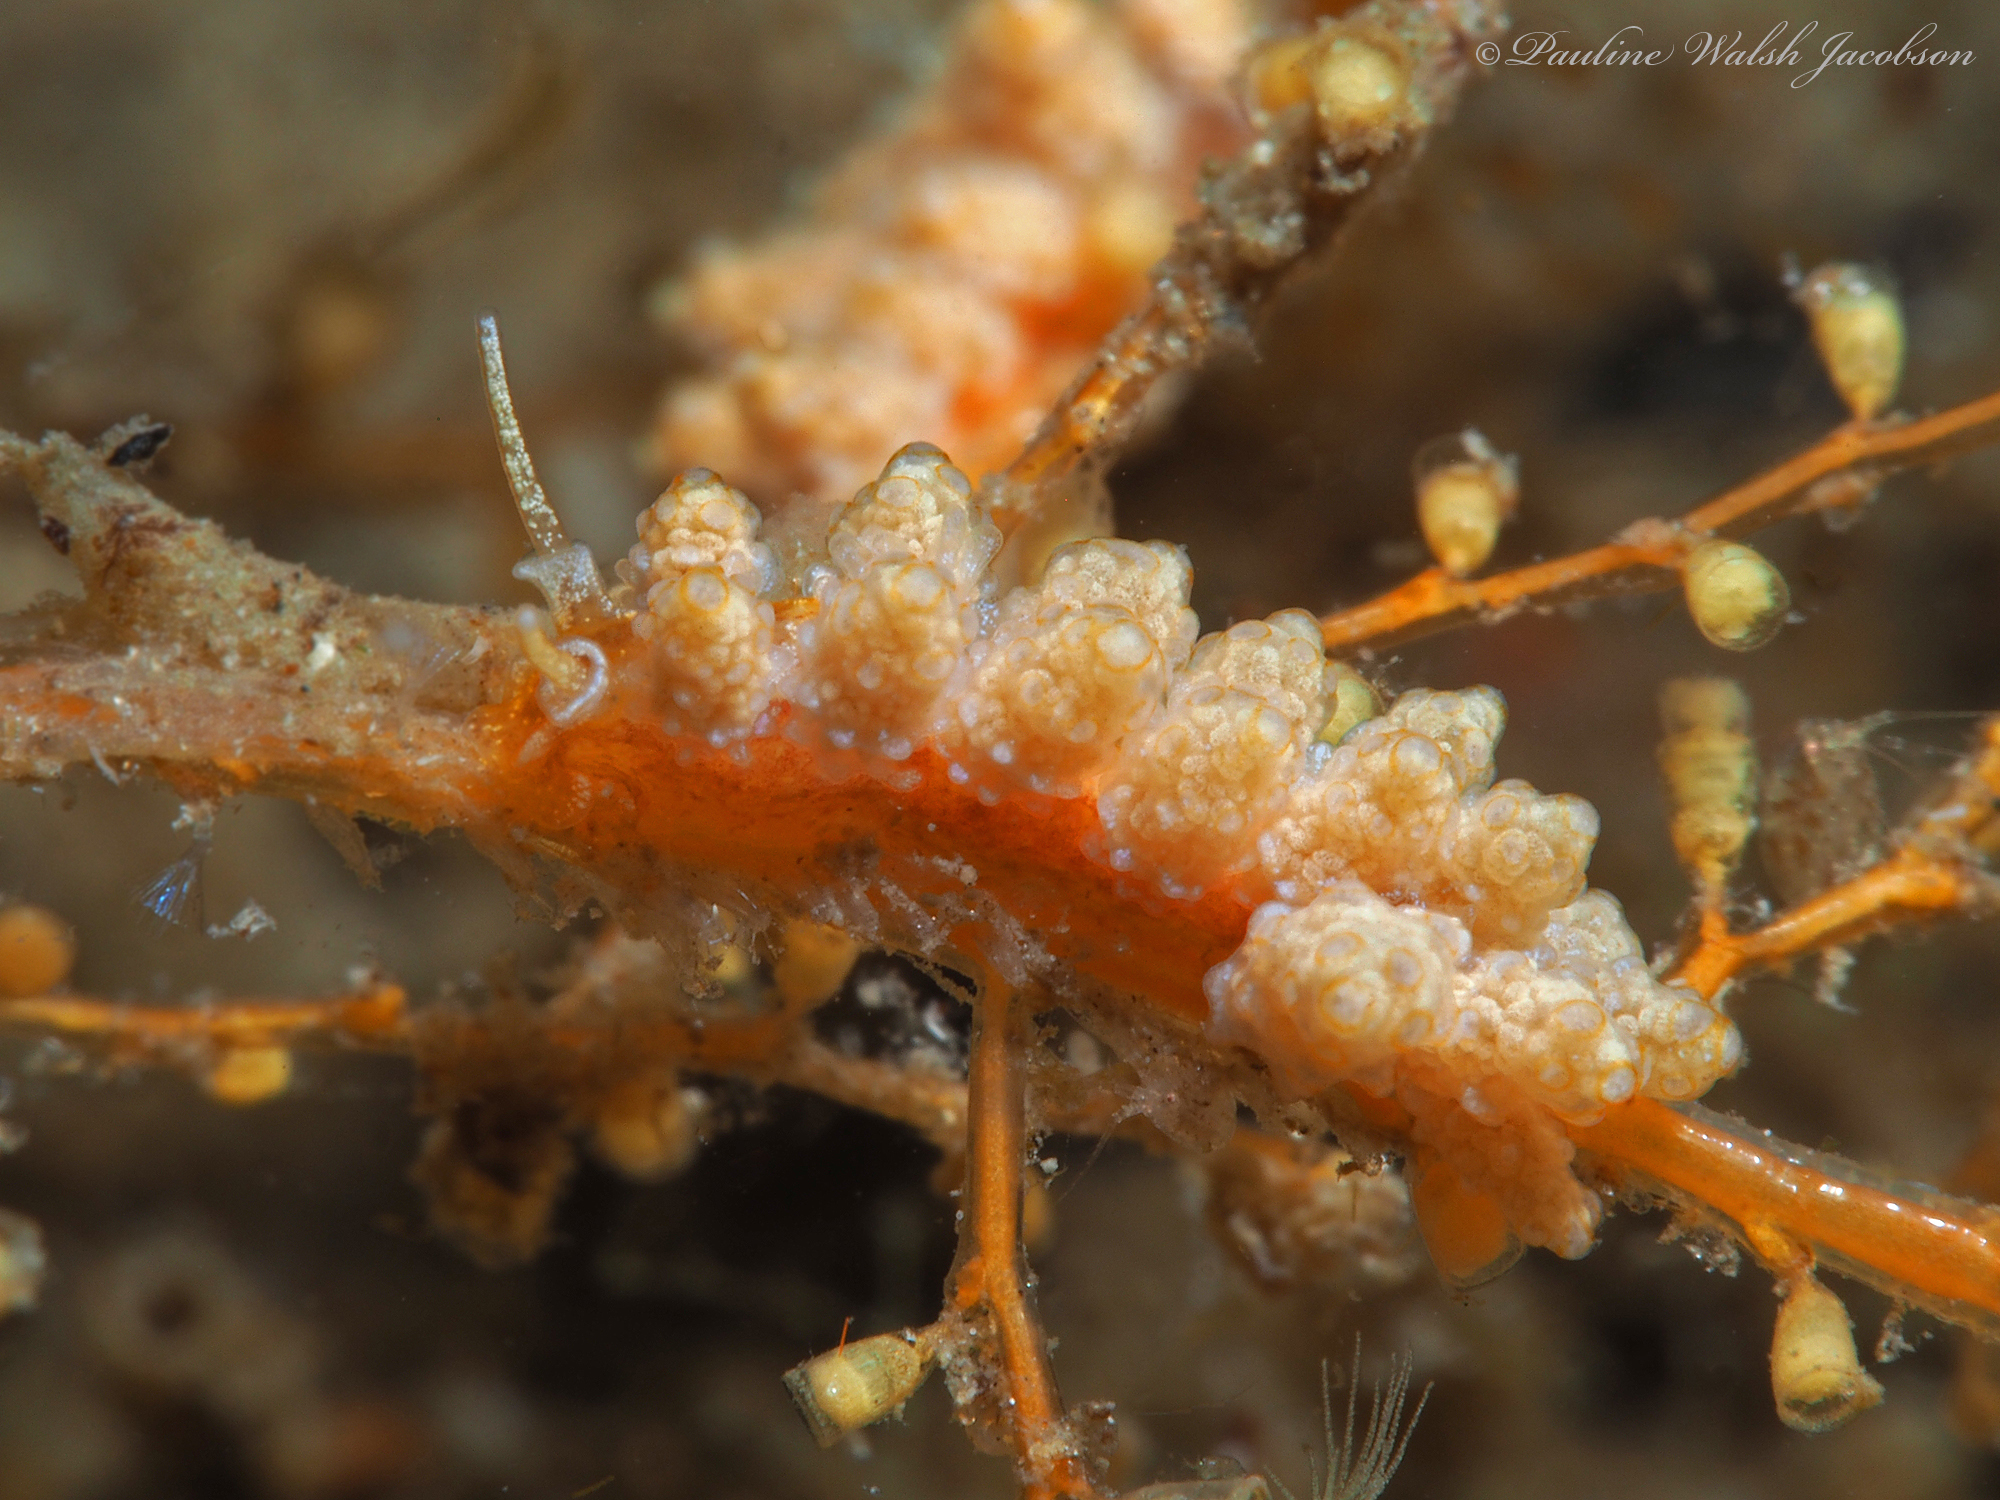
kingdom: Animalia
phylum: Mollusca
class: Gastropoda
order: Nudibranchia
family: Dotidae
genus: Doto
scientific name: Doto torrelavega
